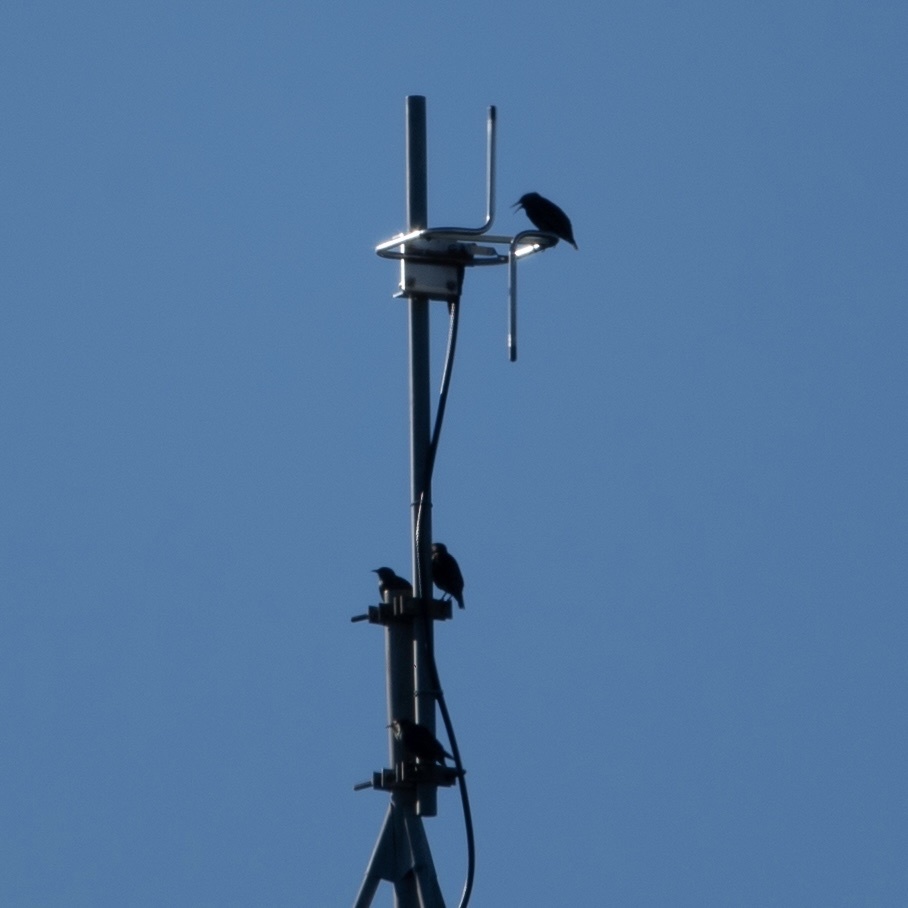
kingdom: Animalia
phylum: Chordata
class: Aves
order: Passeriformes
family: Sturnidae
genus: Sturnus
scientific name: Sturnus vulgaris
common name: Common starling
